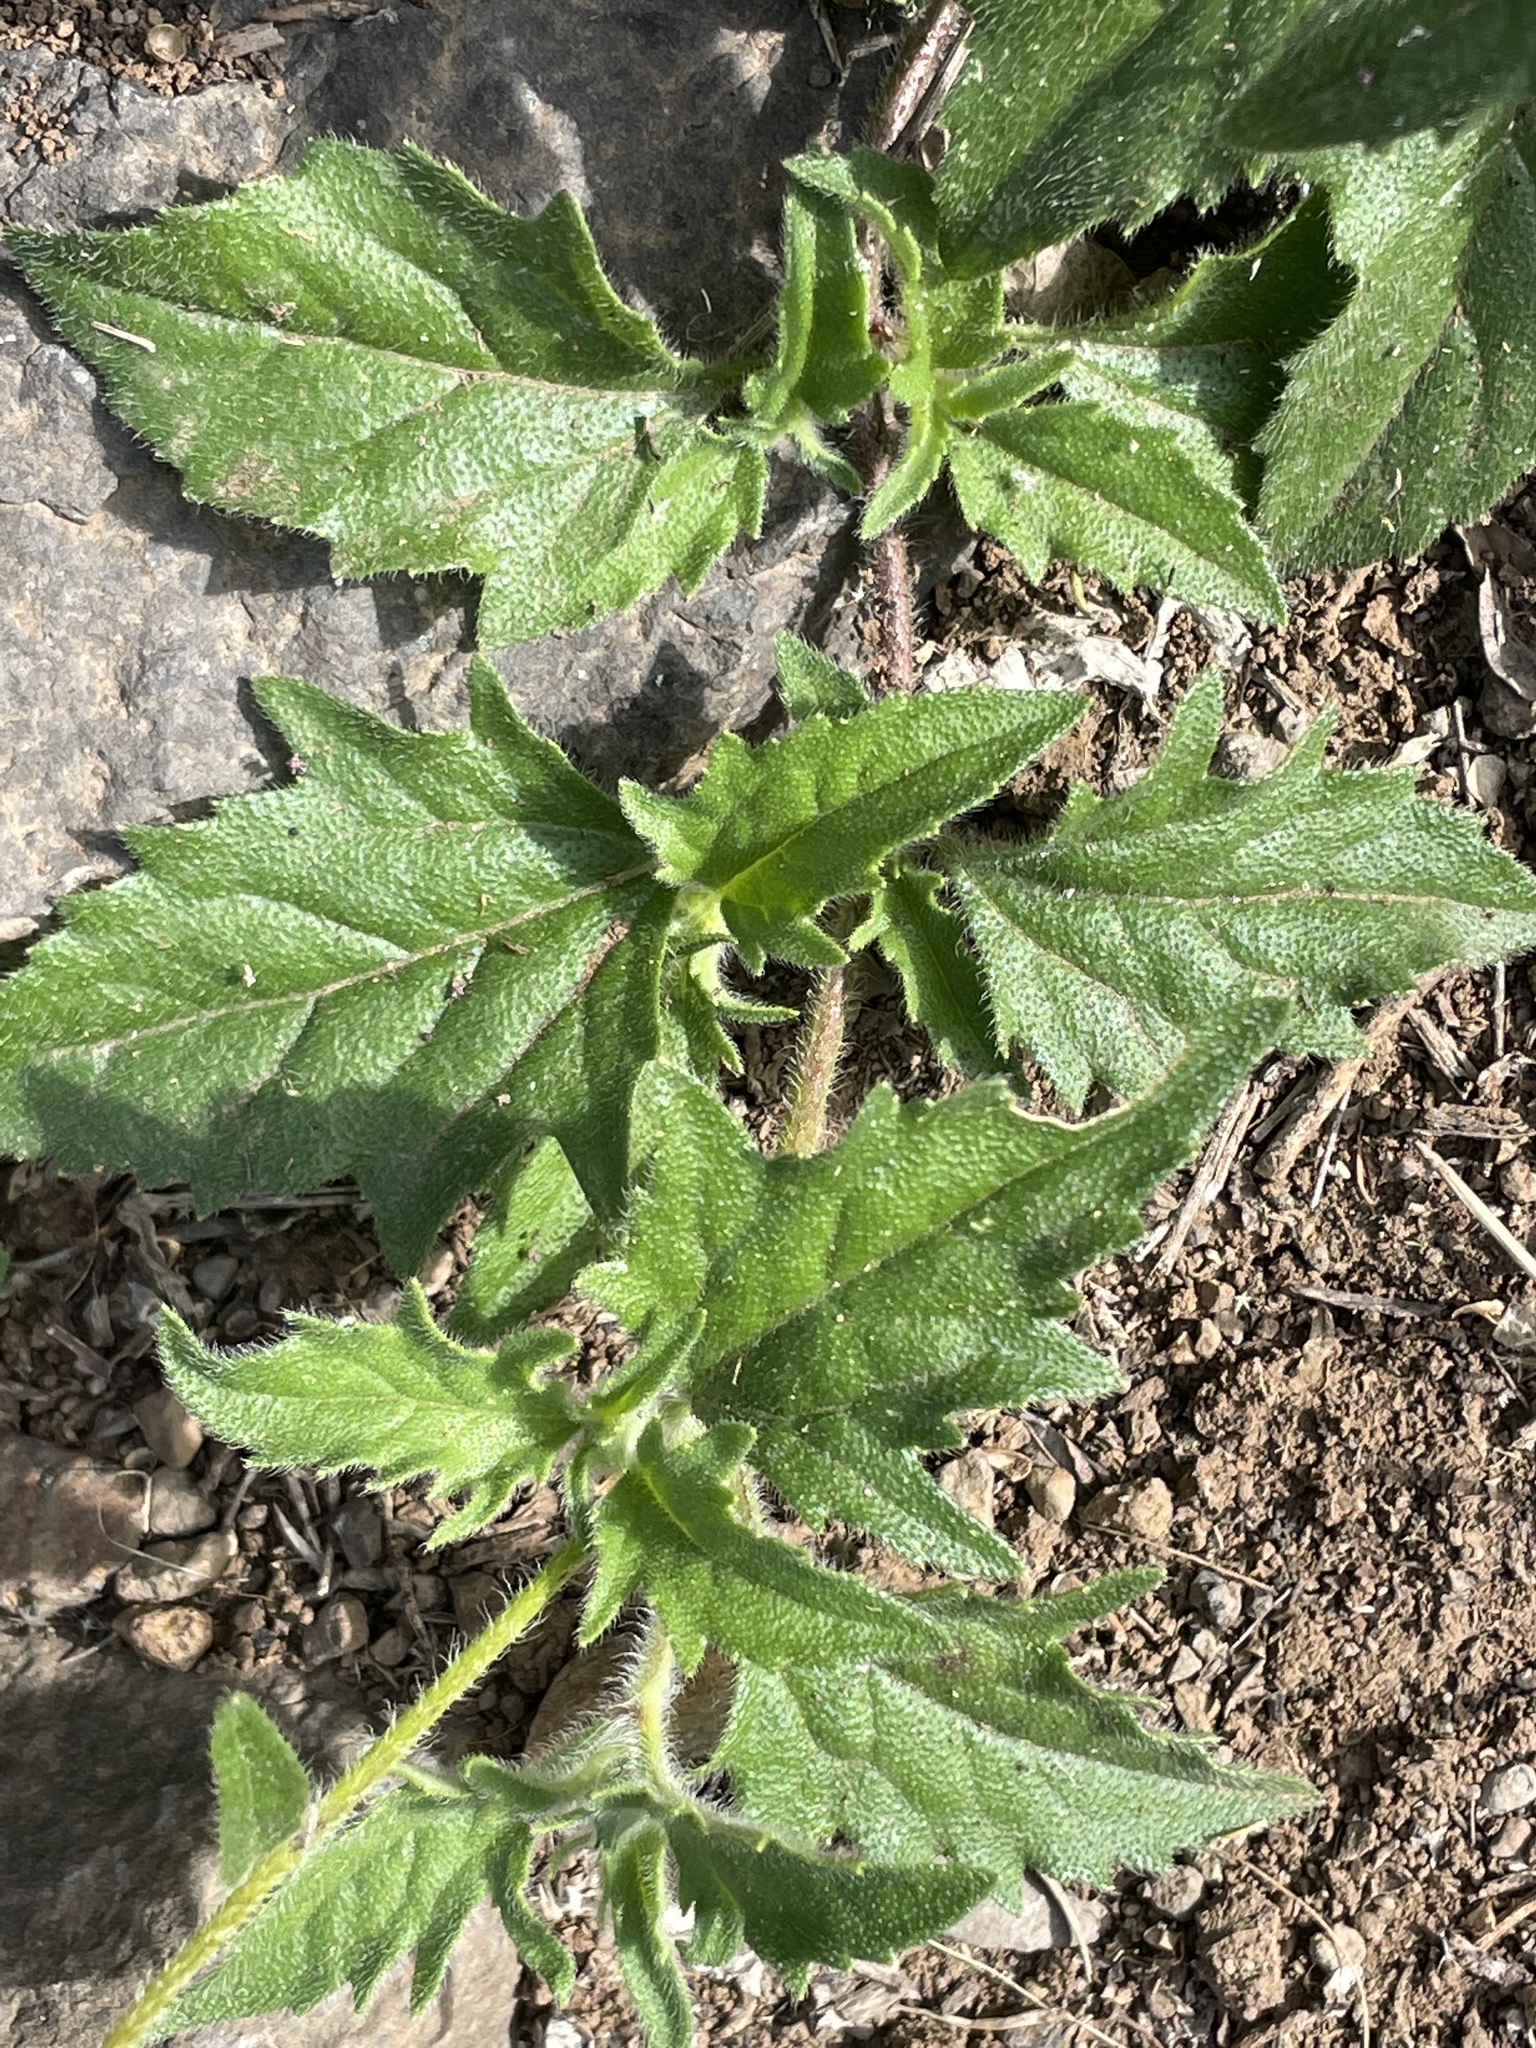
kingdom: Plantae
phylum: Tracheophyta
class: Magnoliopsida
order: Asterales
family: Asteraceae
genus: Tridax
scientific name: Tridax procumbens
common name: Coatbuttons
